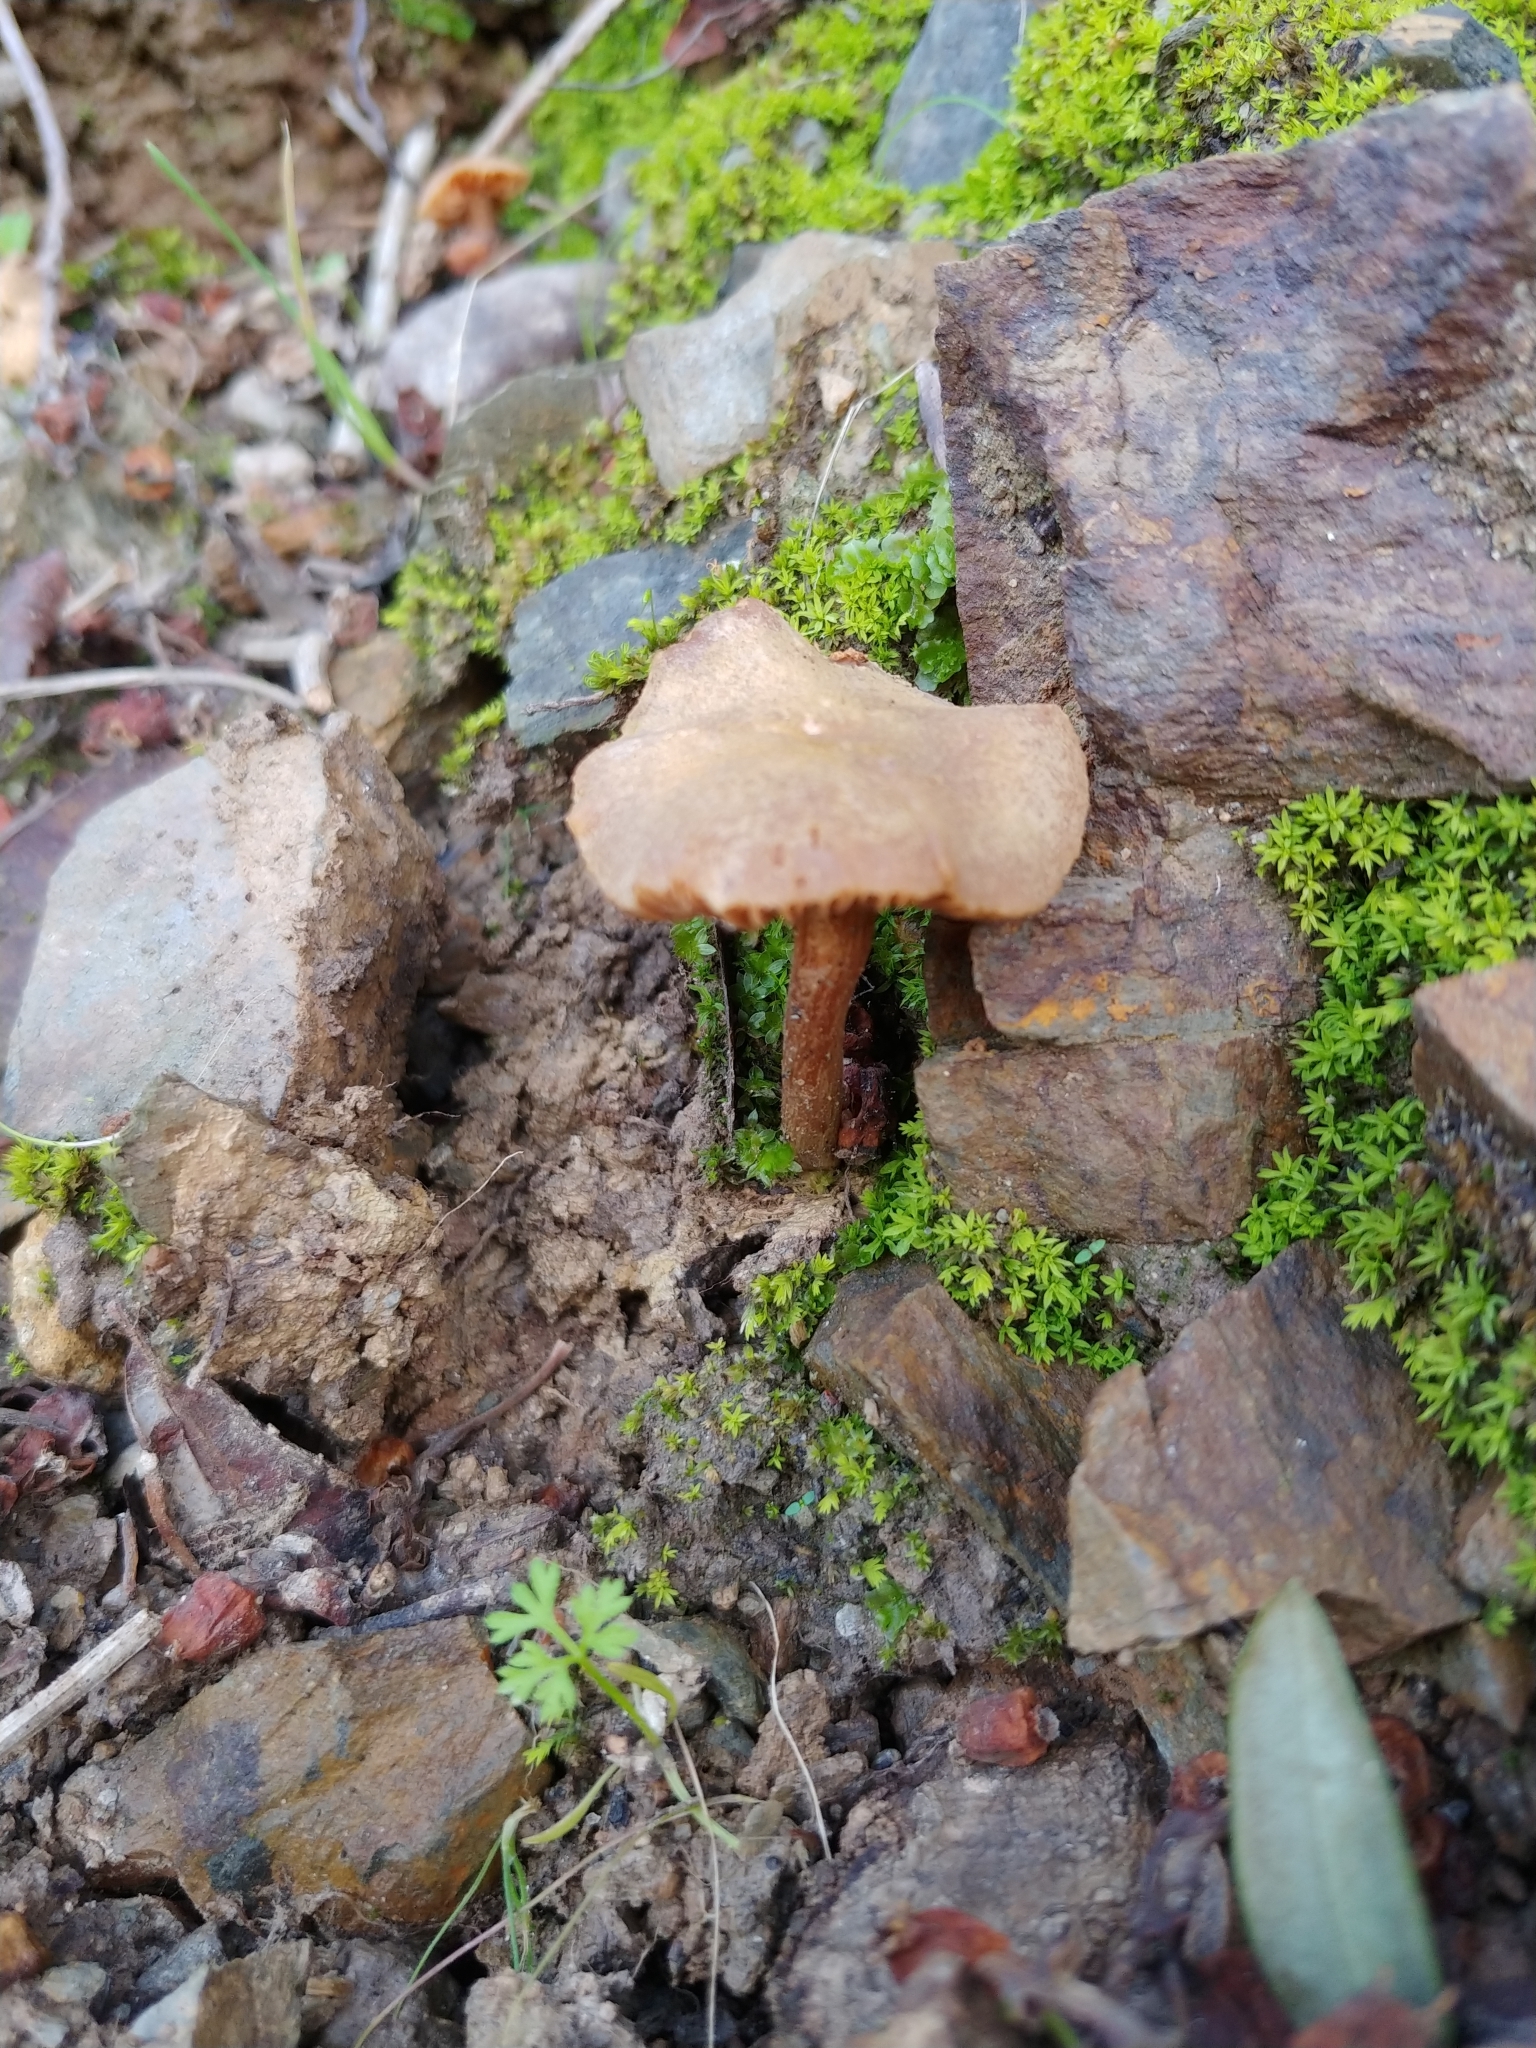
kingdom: Fungi
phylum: Basidiomycota
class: Agaricomycetes
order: Agaricales
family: Hydnangiaceae
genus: Laccaria
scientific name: Laccaria laccata
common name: Deceiver
